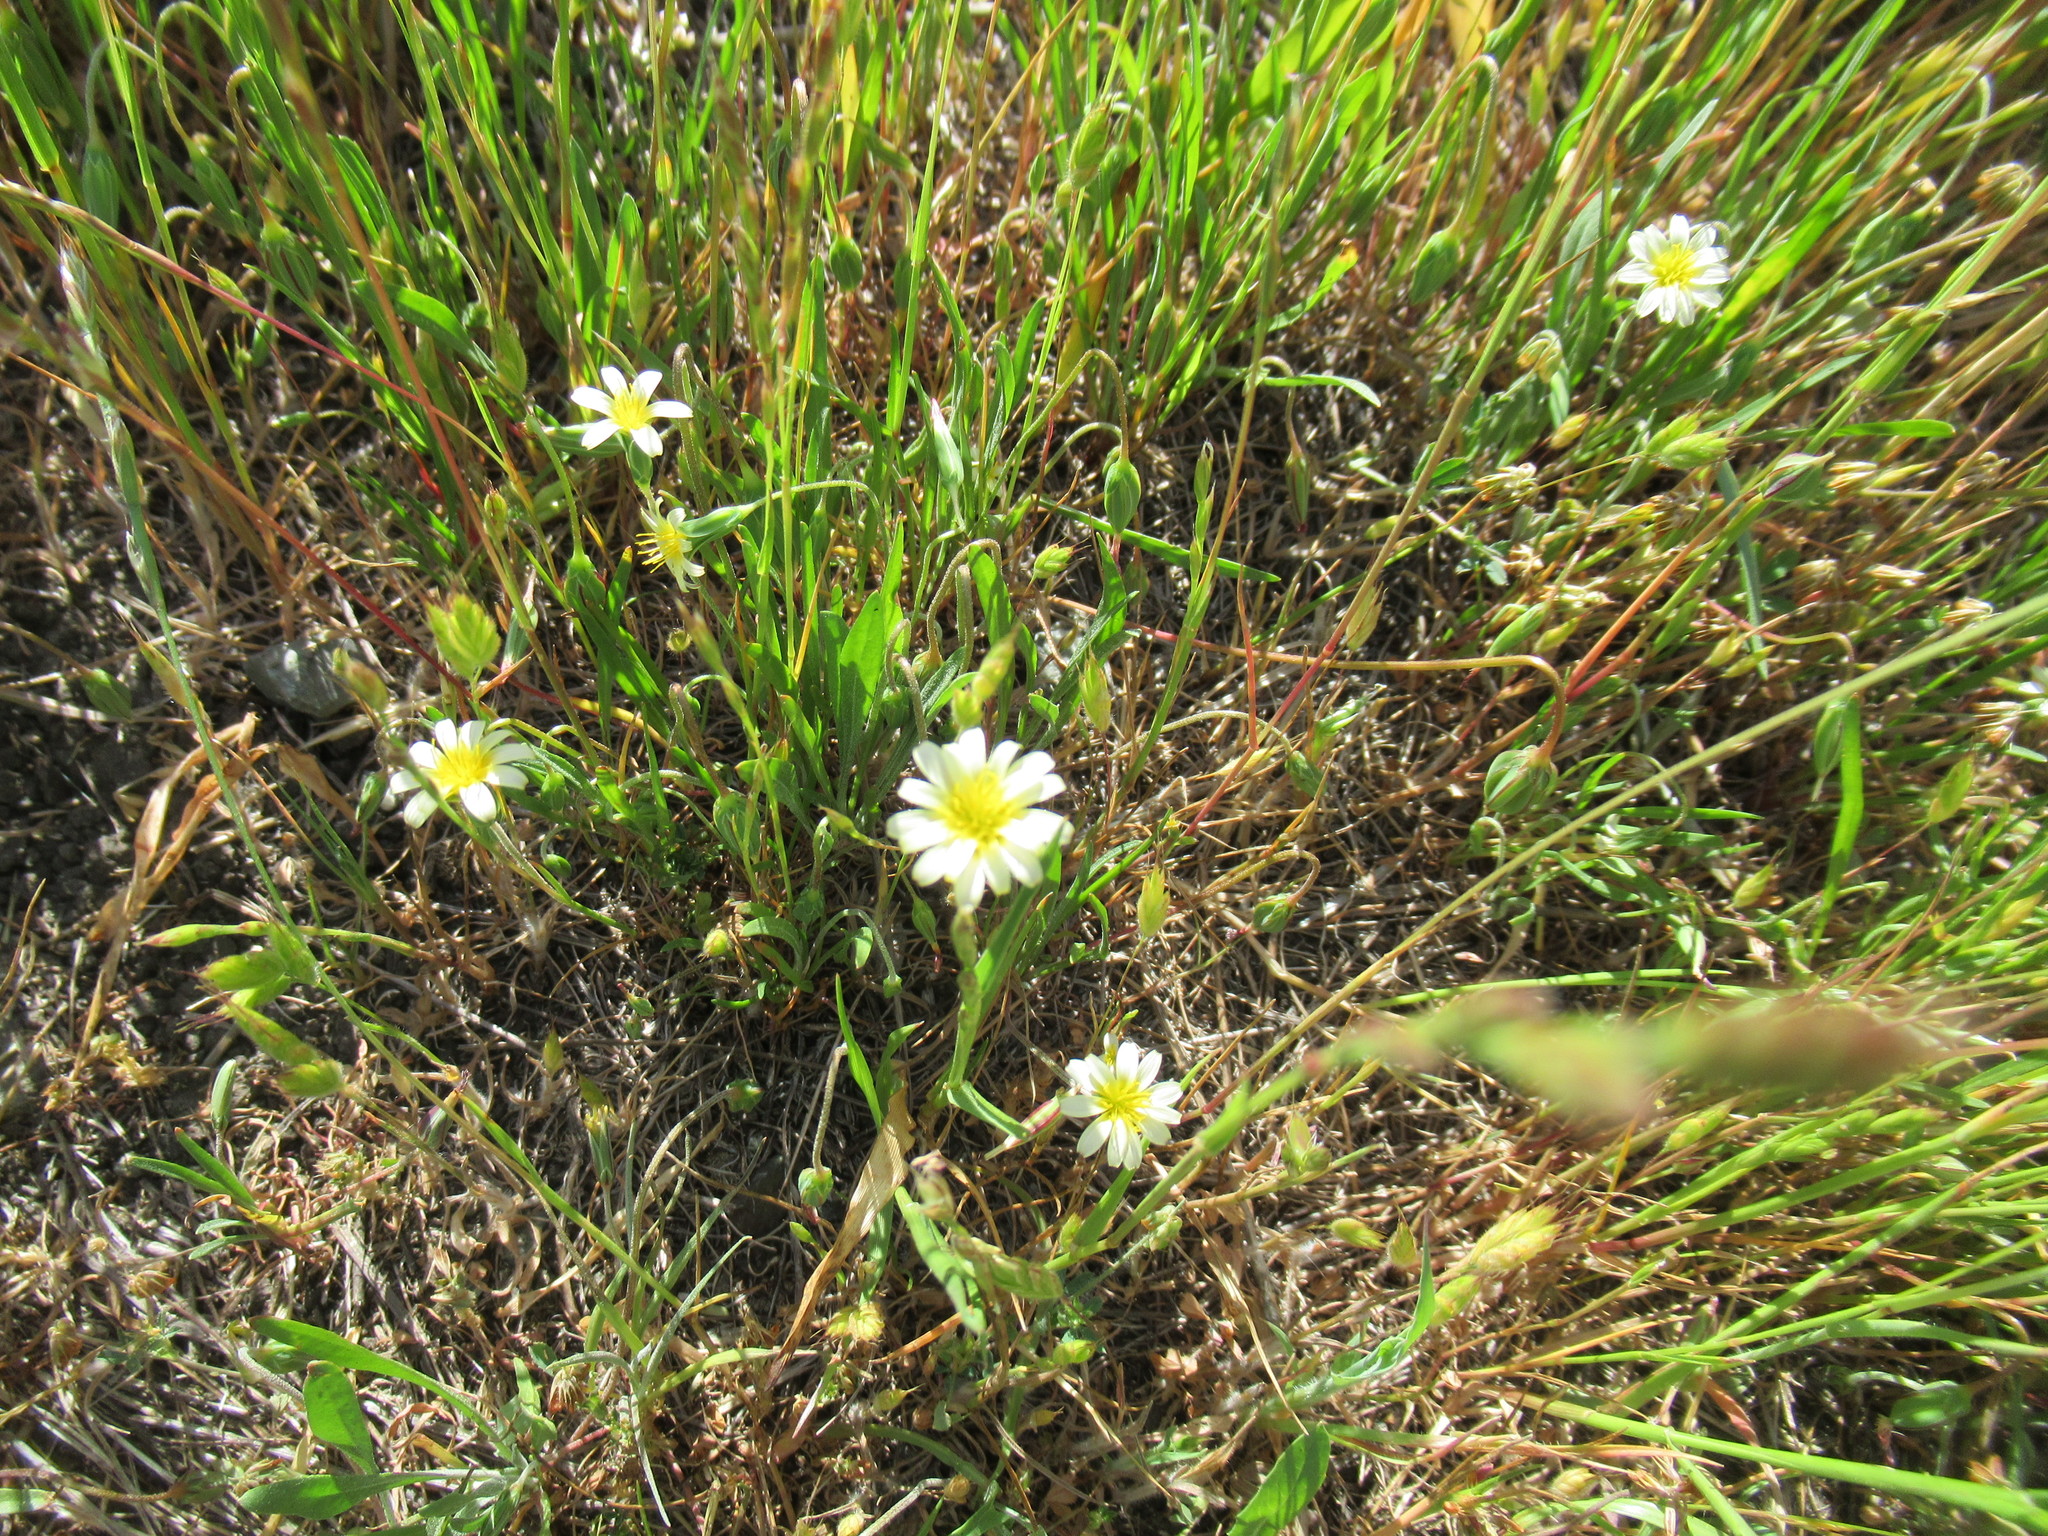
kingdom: Plantae
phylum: Tracheophyta
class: Magnoliopsida
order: Asterales
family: Asteraceae
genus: Microseris
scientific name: Microseris douglasii
